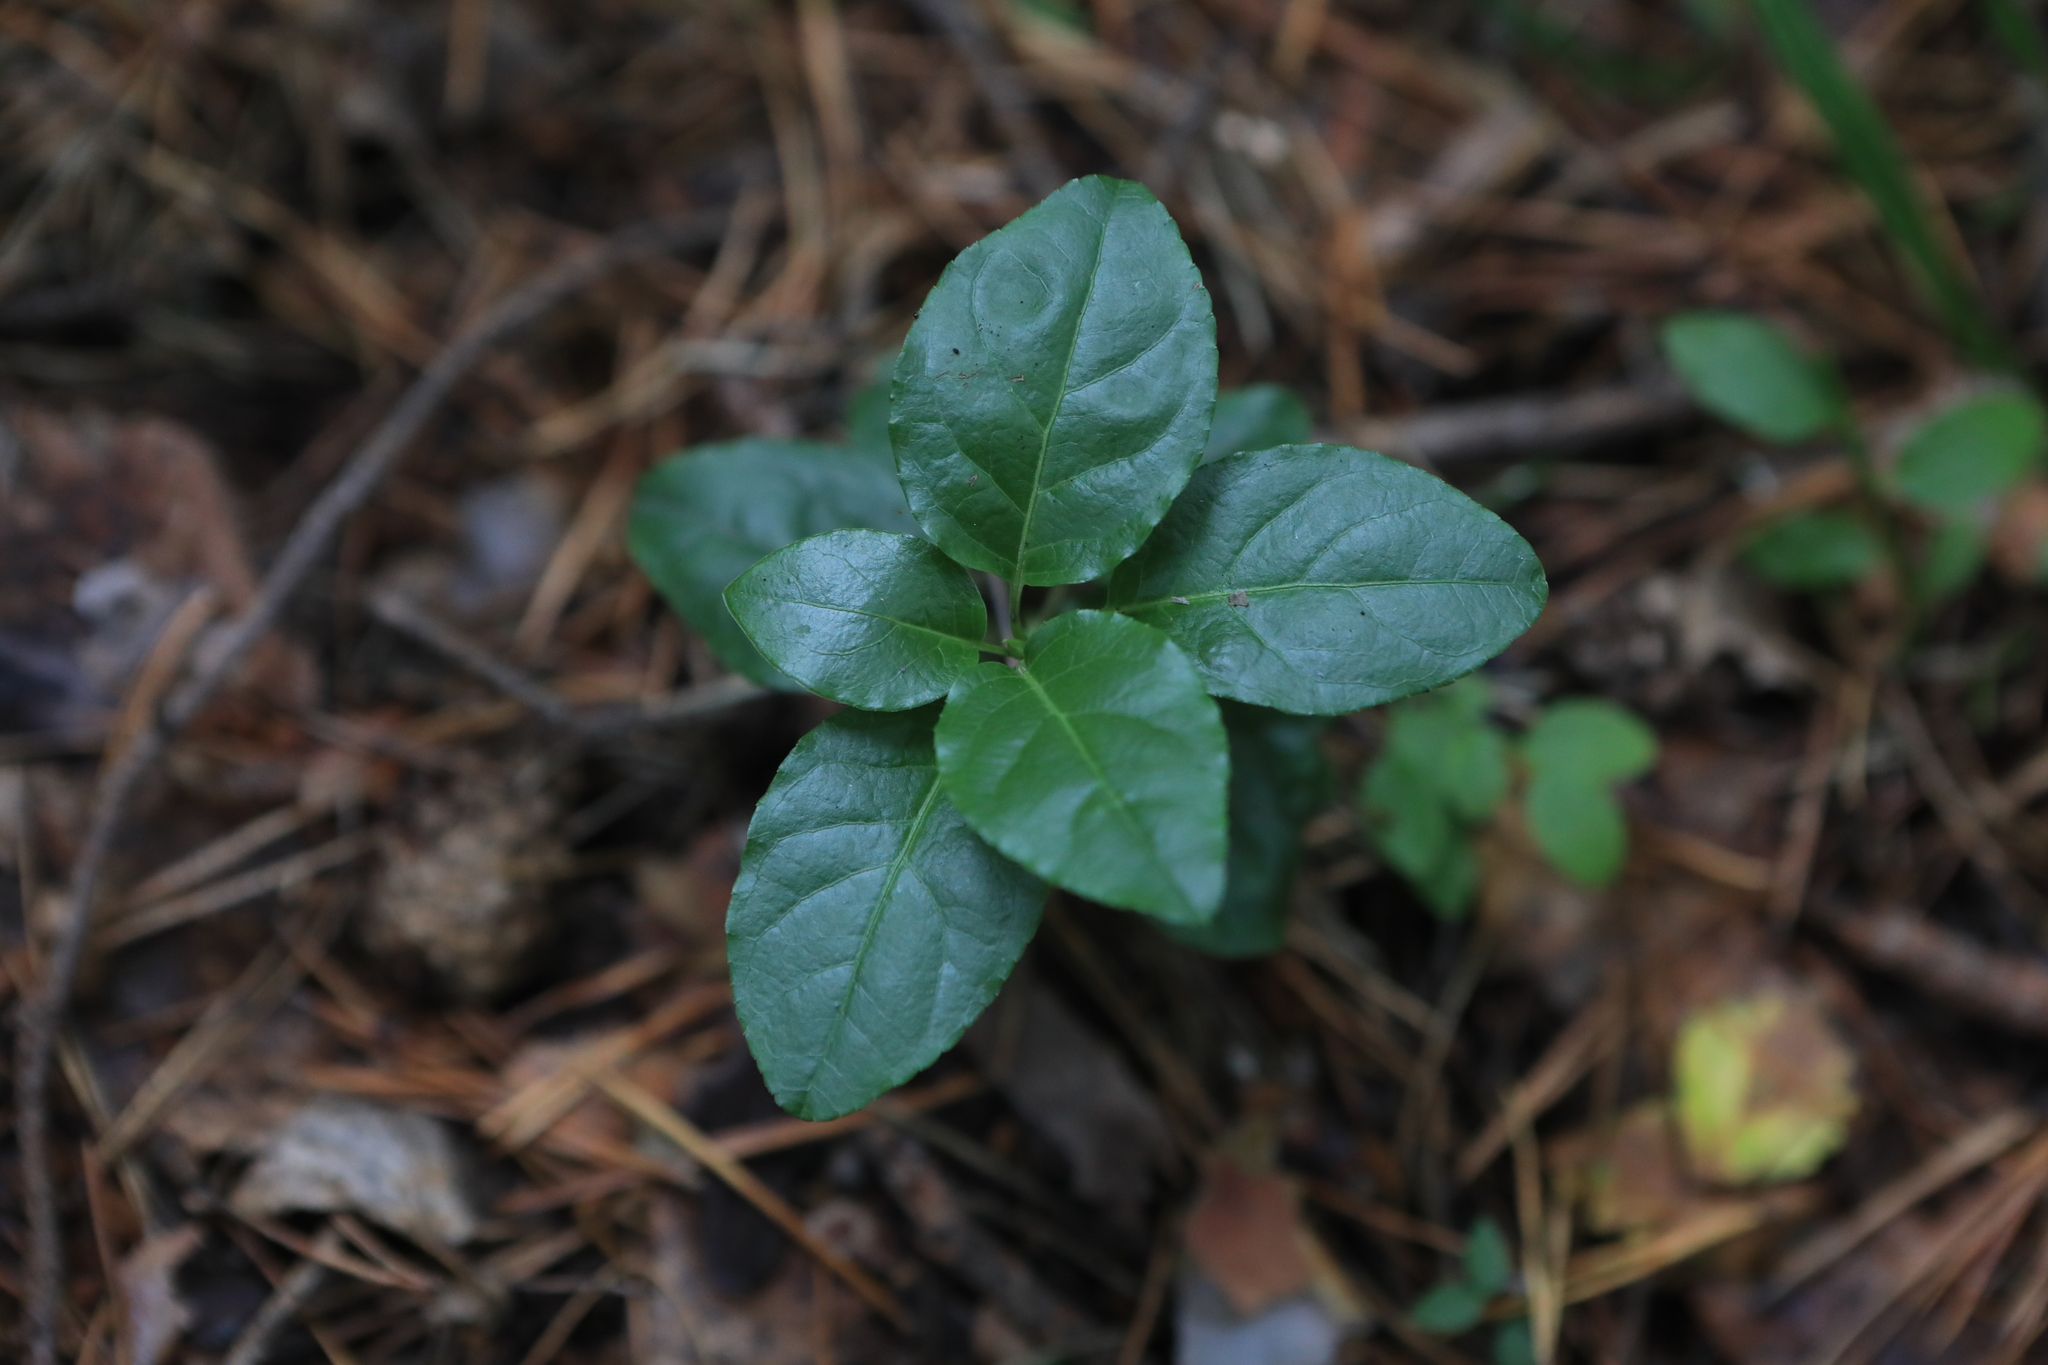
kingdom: Plantae
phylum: Tracheophyta
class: Magnoliopsida
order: Ericales
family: Ericaceae
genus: Orthilia
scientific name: Orthilia secunda
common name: One-sided orthilia
